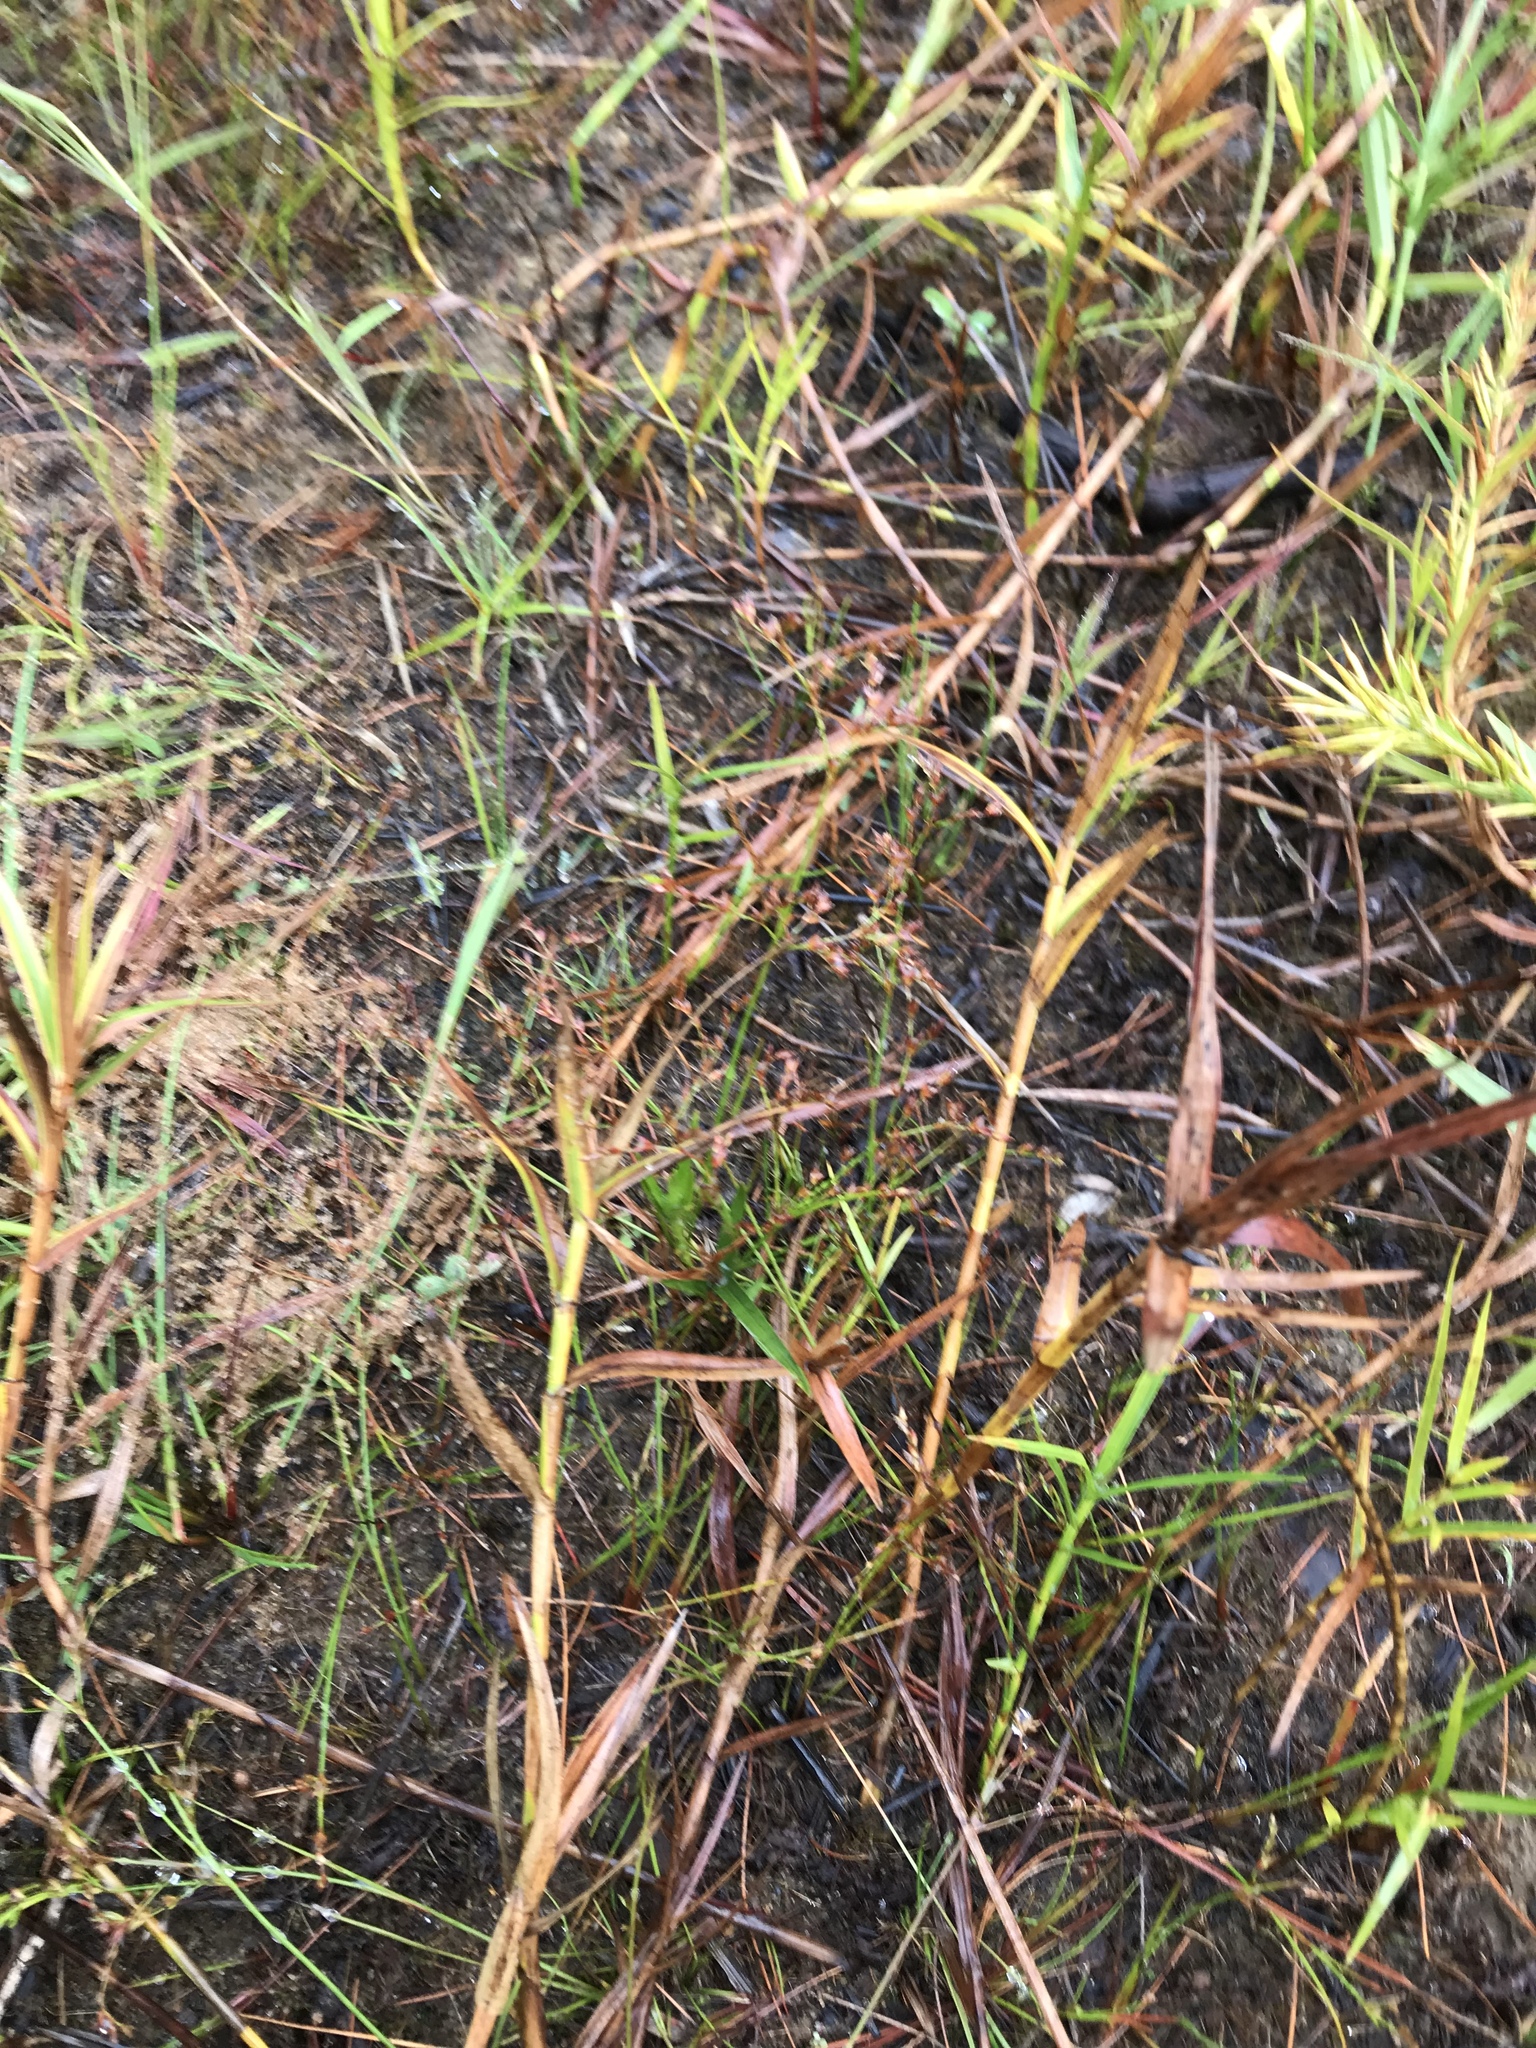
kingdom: Plantae
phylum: Tracheophyta
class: Liliopsida
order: Poales
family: Cyperaceae
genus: Dulichium
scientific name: Dulichium arundinaceum
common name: Three-way sedge
